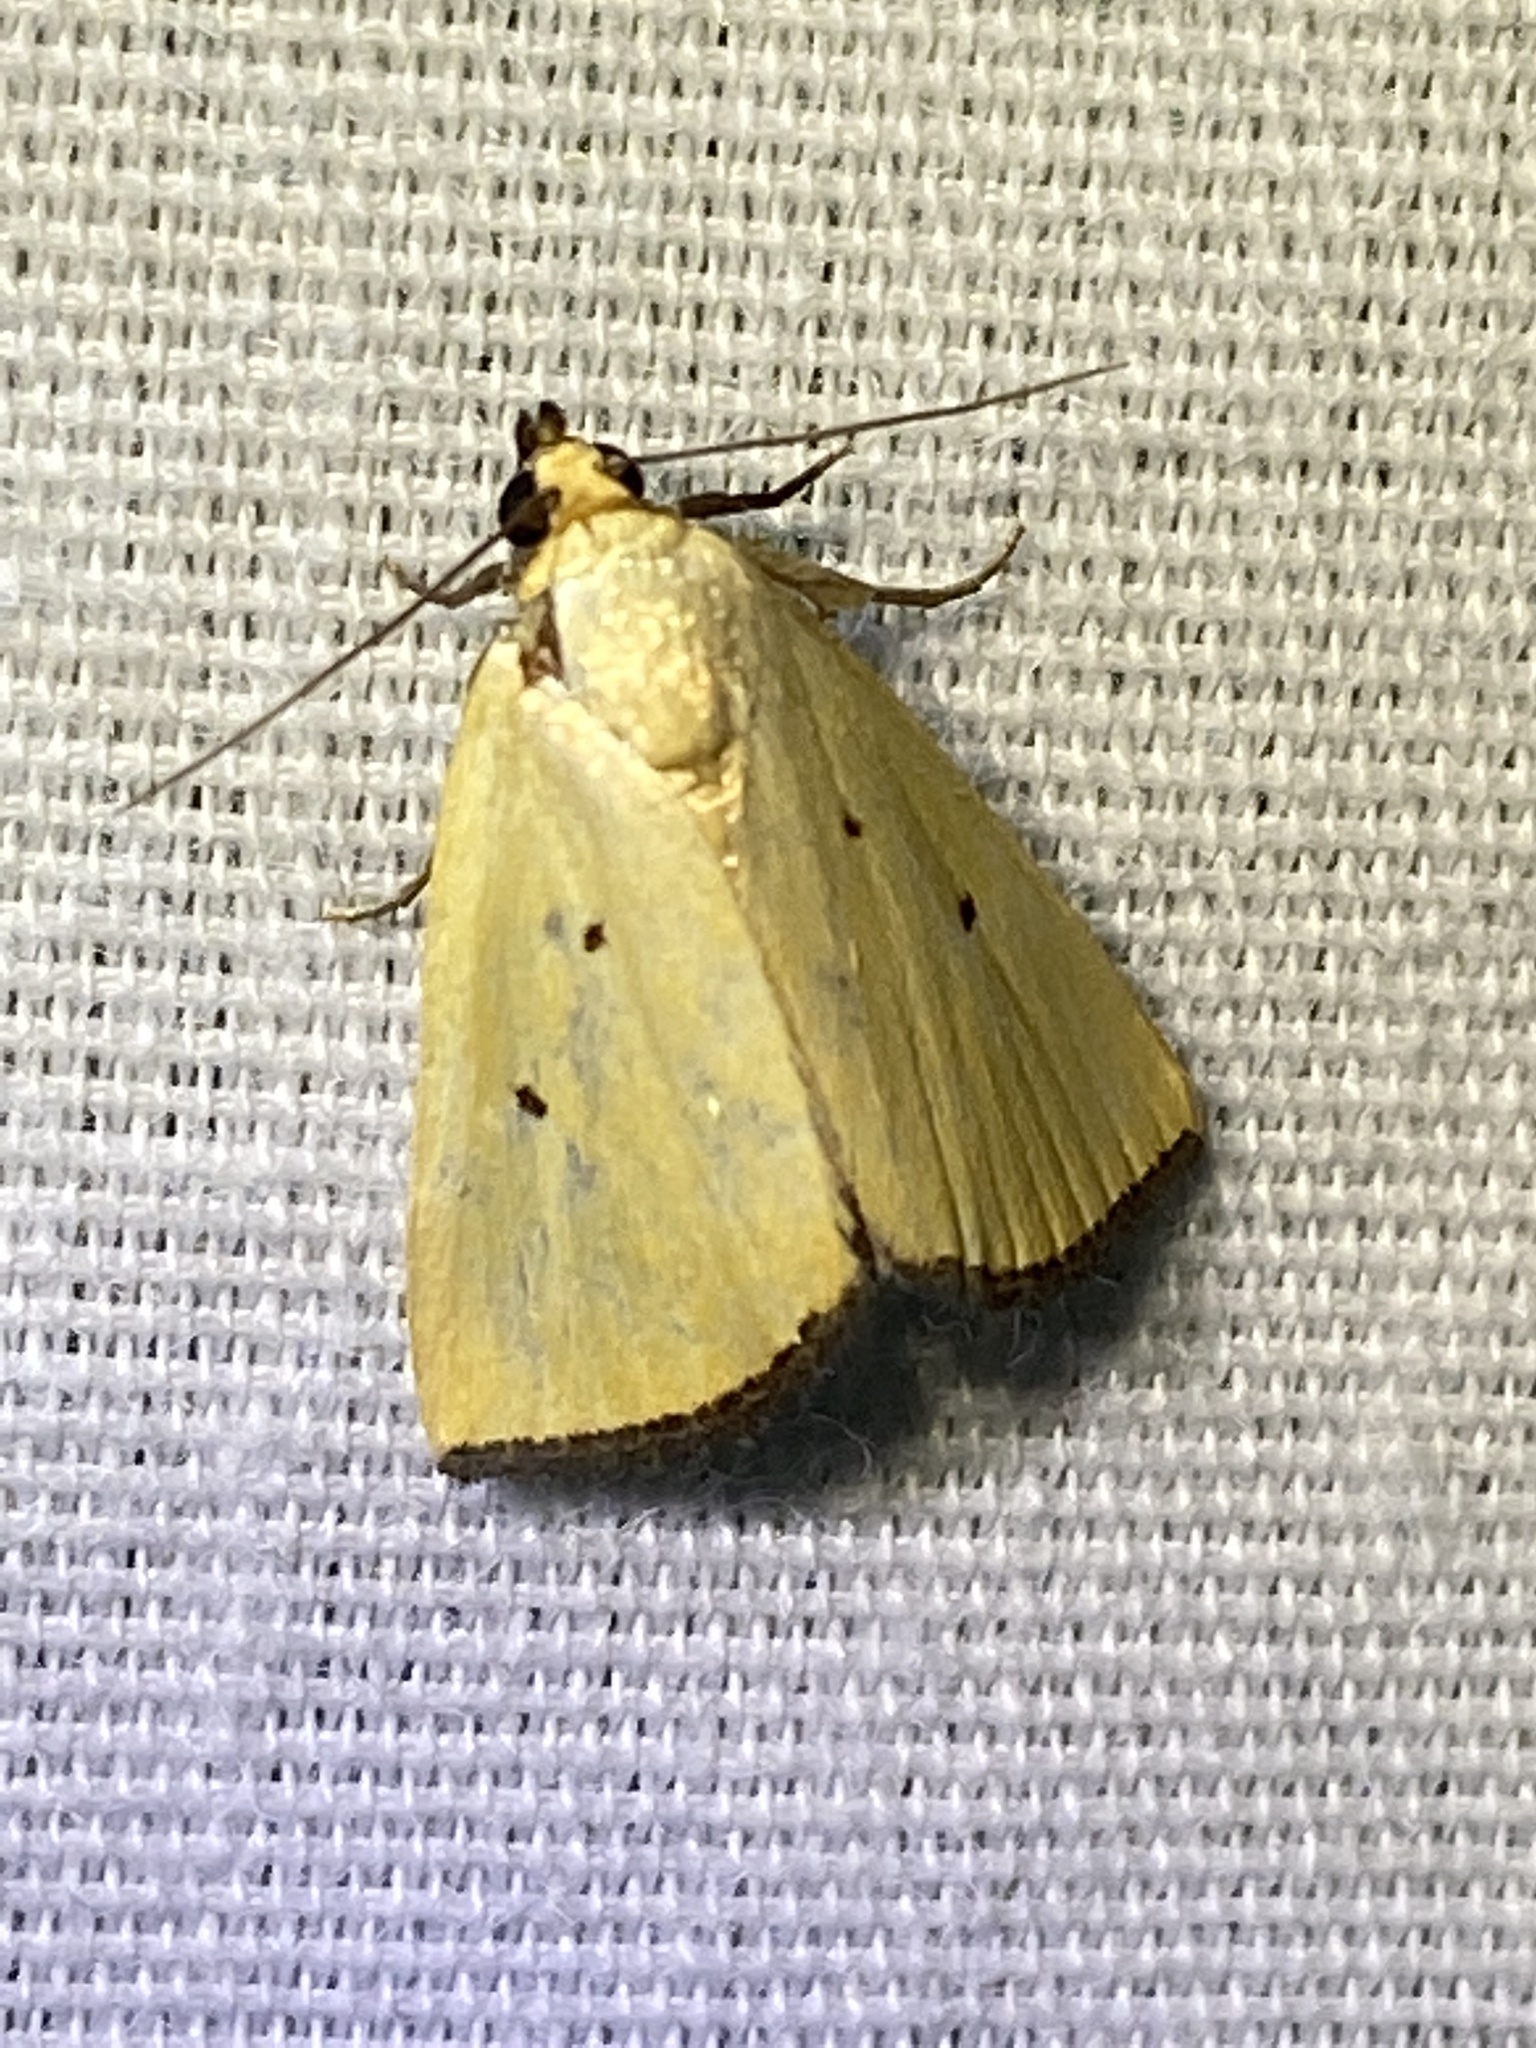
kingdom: Animalia
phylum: Arthropoda
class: Insecta
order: Lepidoptera
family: Noctuidae
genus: Marimatha
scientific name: Marimatha nigrofimbria
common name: Black-bordered lemon moth
